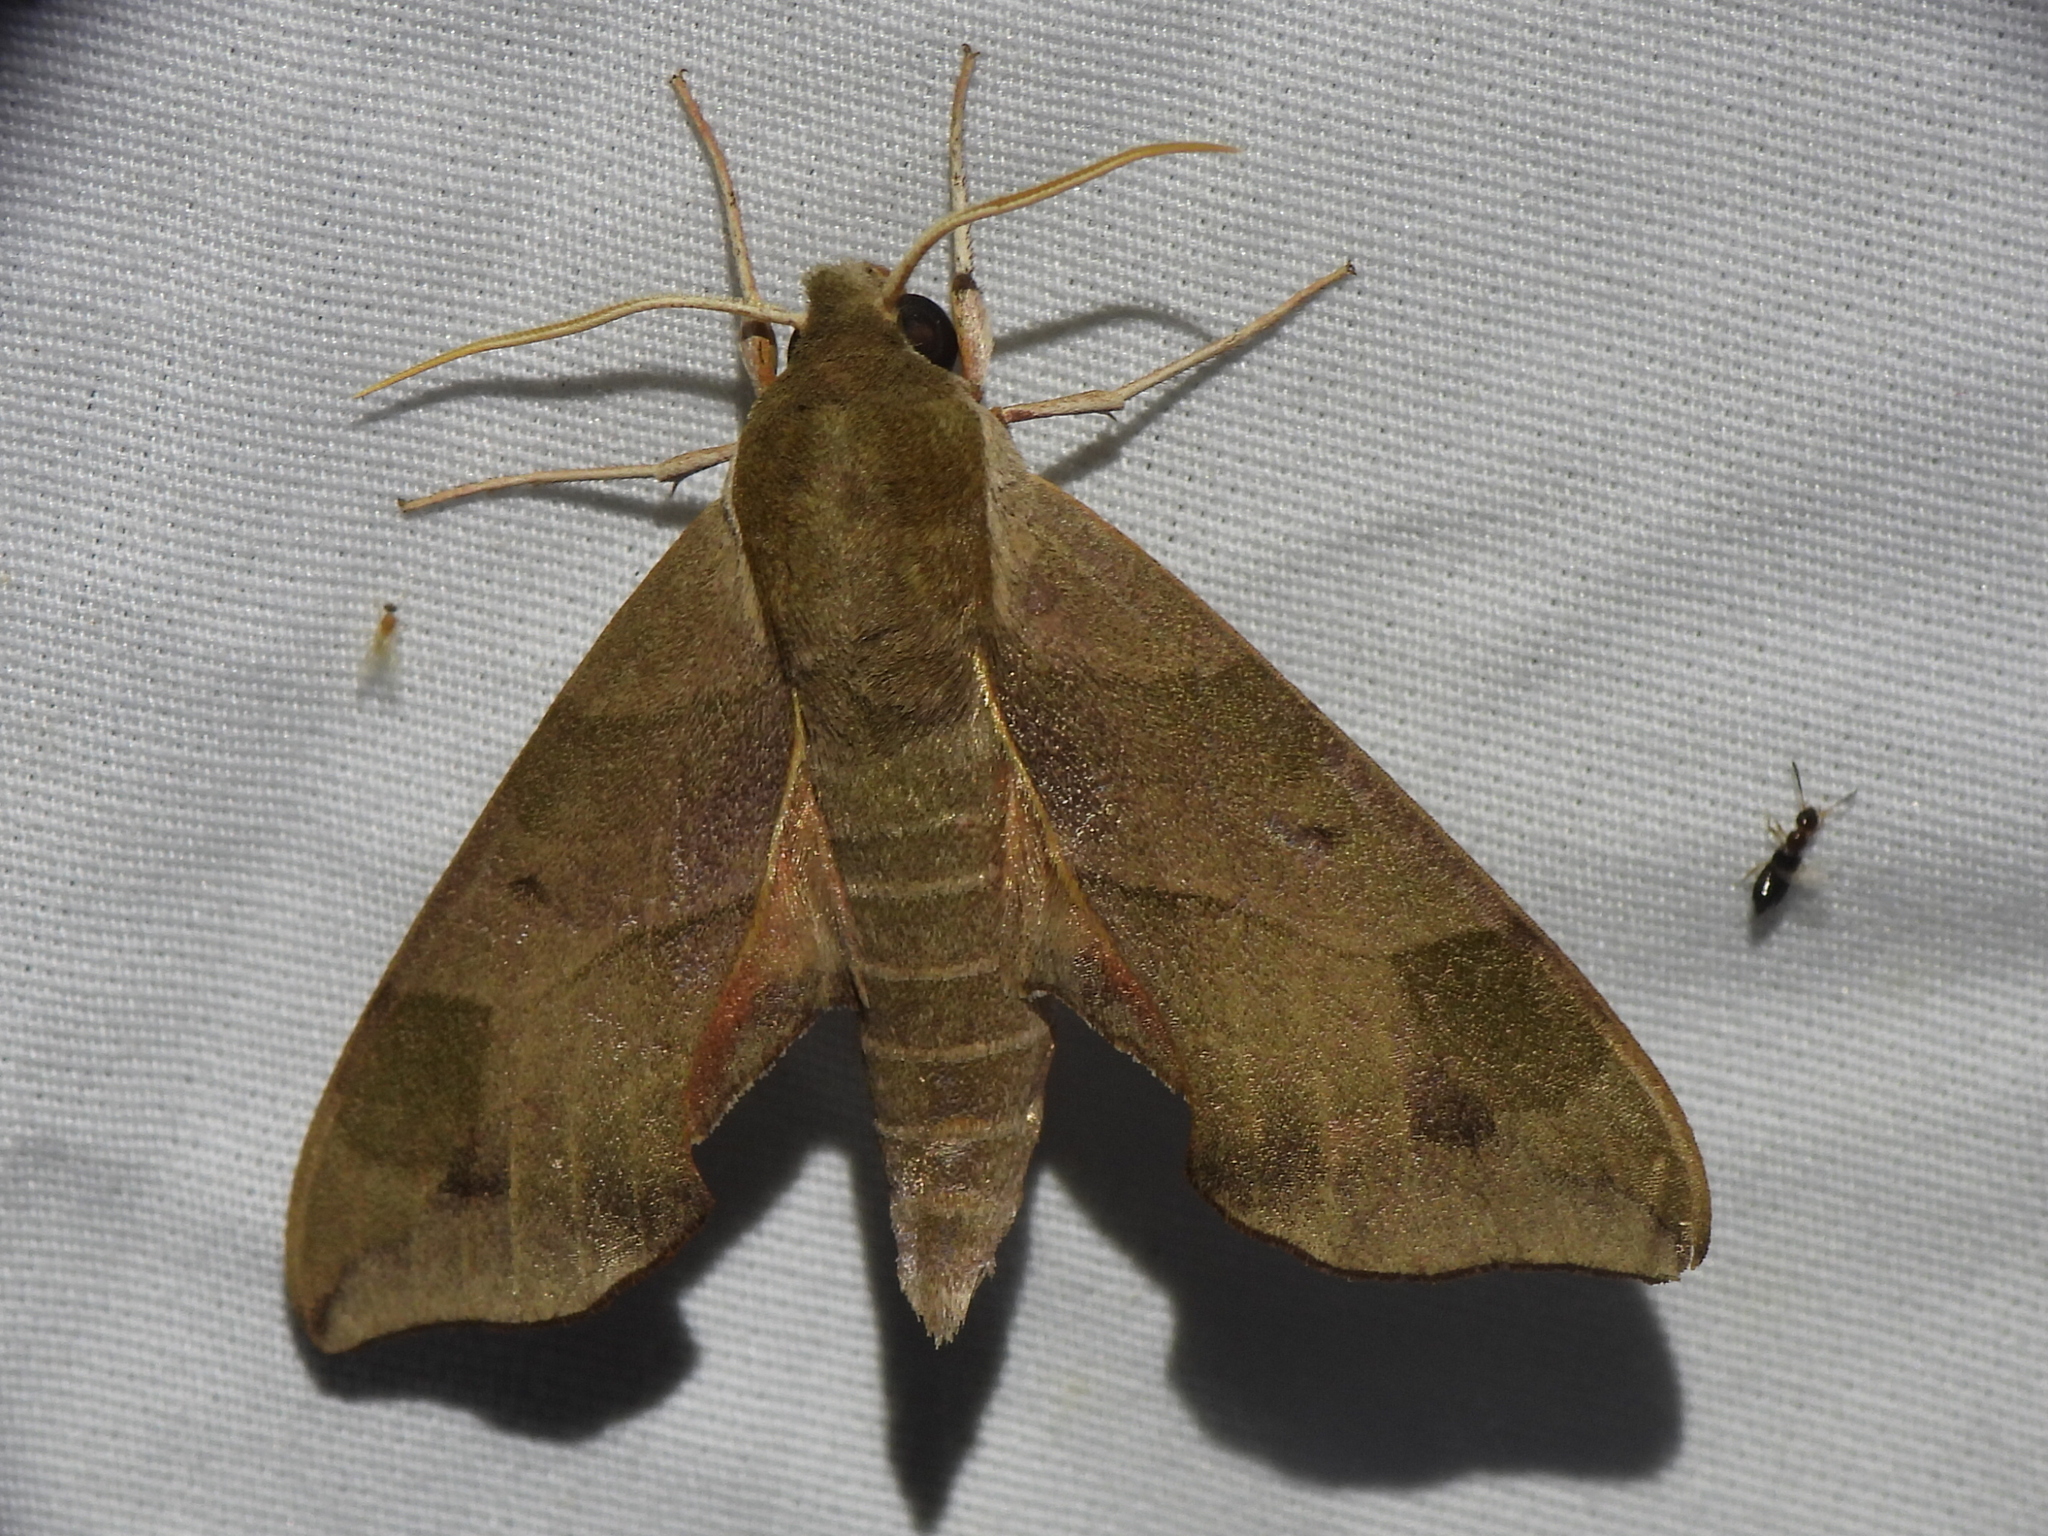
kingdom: Animalia
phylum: Arthropoda
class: Insecta
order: Lepidoptera
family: Sphingidae
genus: Darapsa
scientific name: Darapsa myron
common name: Hog sphinx
